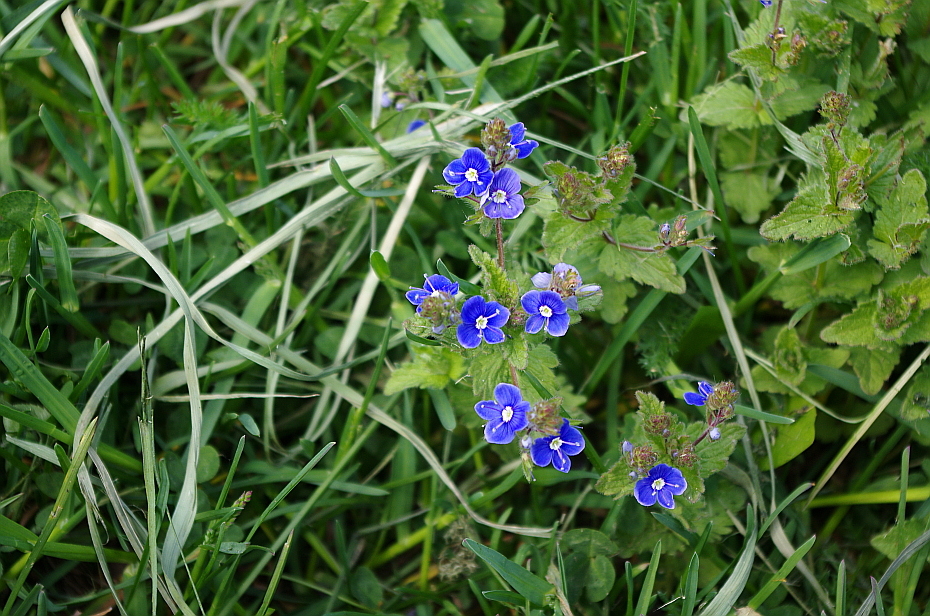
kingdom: Plantae
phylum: Tracheophyta
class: Magnoliopsida
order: Lamiales
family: Plantaginaceae
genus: Veronica
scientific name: Veronica chamaedrys
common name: Germander speedwell
